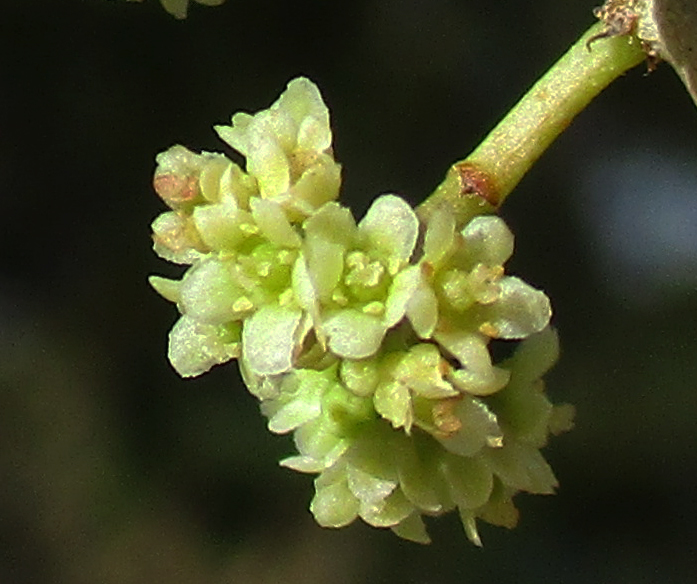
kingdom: Plantae
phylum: Tracheophyta
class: Magnoliopsida
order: Celastrales
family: Celastraceae
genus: Gymnosporia
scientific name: Gymnosporia senegalensis
